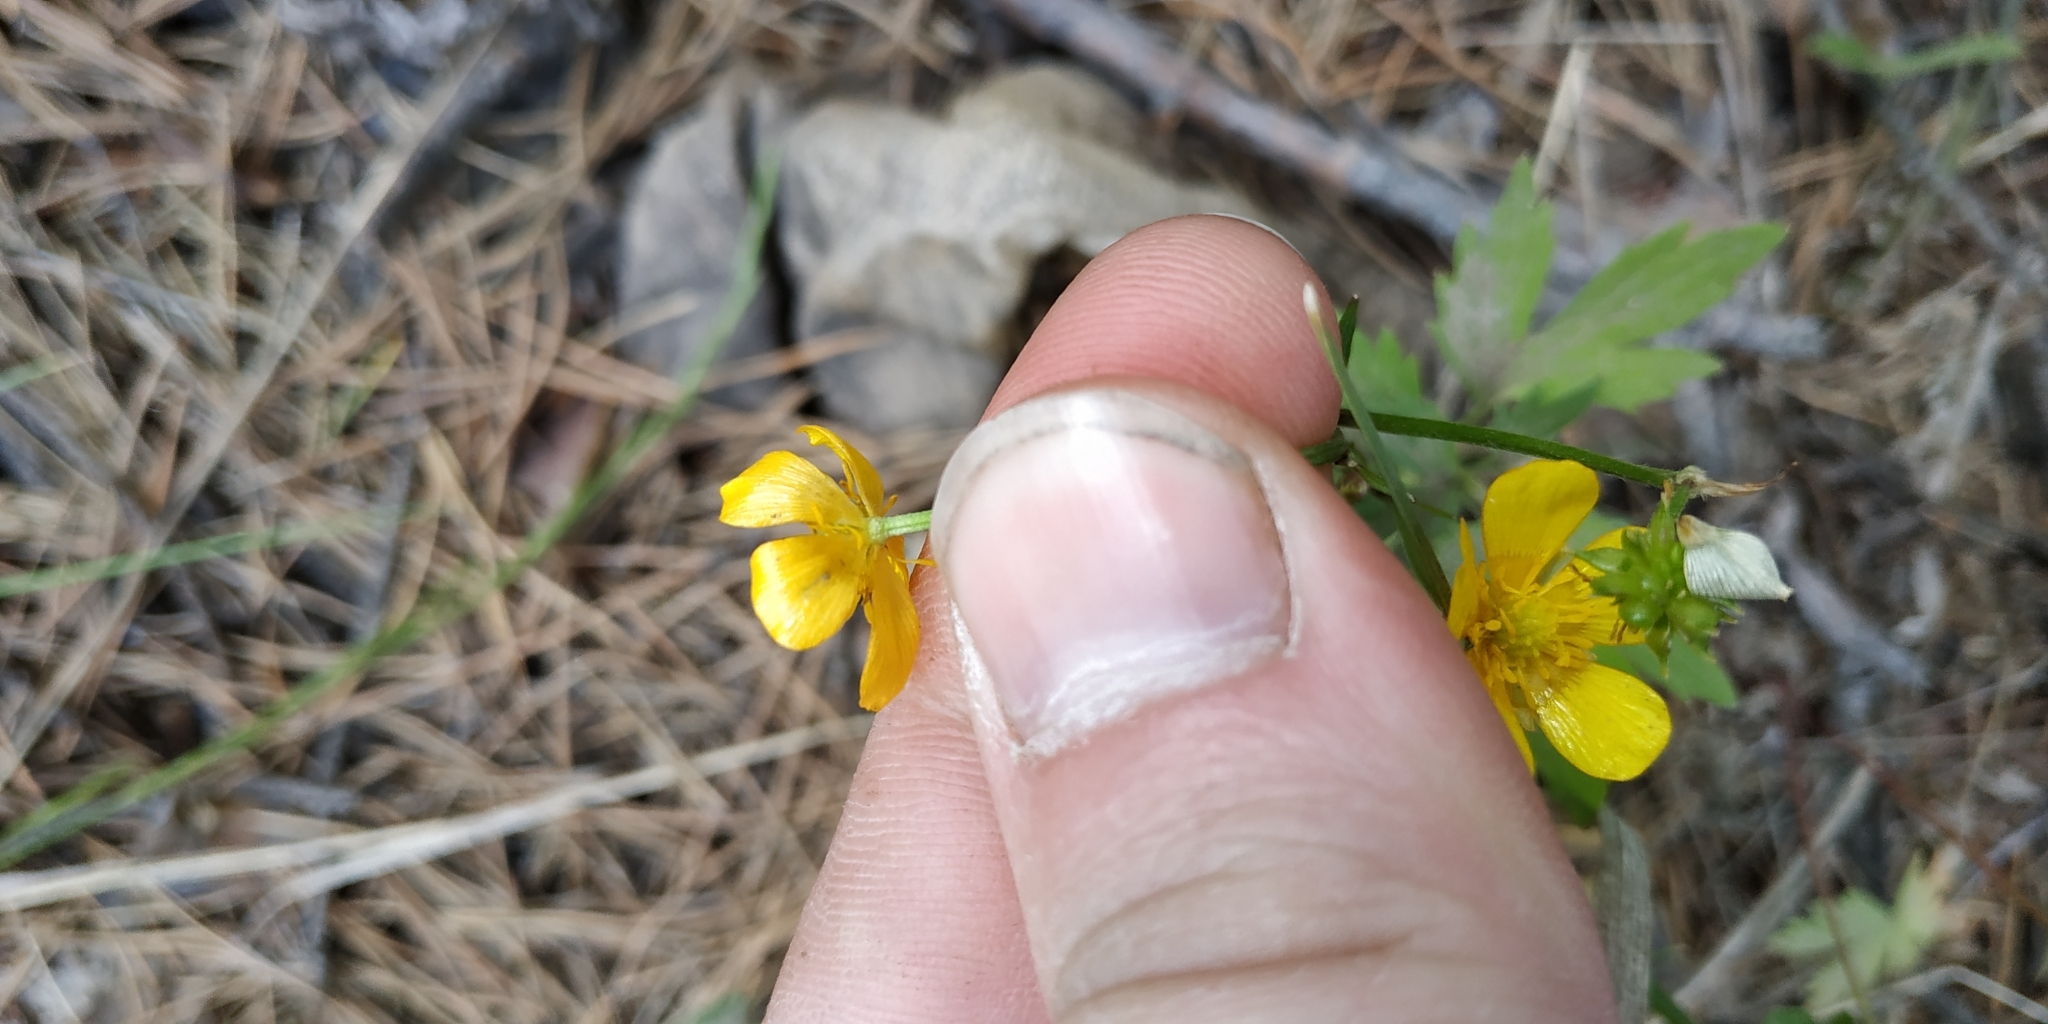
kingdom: Plantae
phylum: Tracheophyta
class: Magnoliopsida
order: Ranunculales
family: Ranunculaceae
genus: Ranunculus
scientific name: Ranunculus repens
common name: Creeping buttercup
